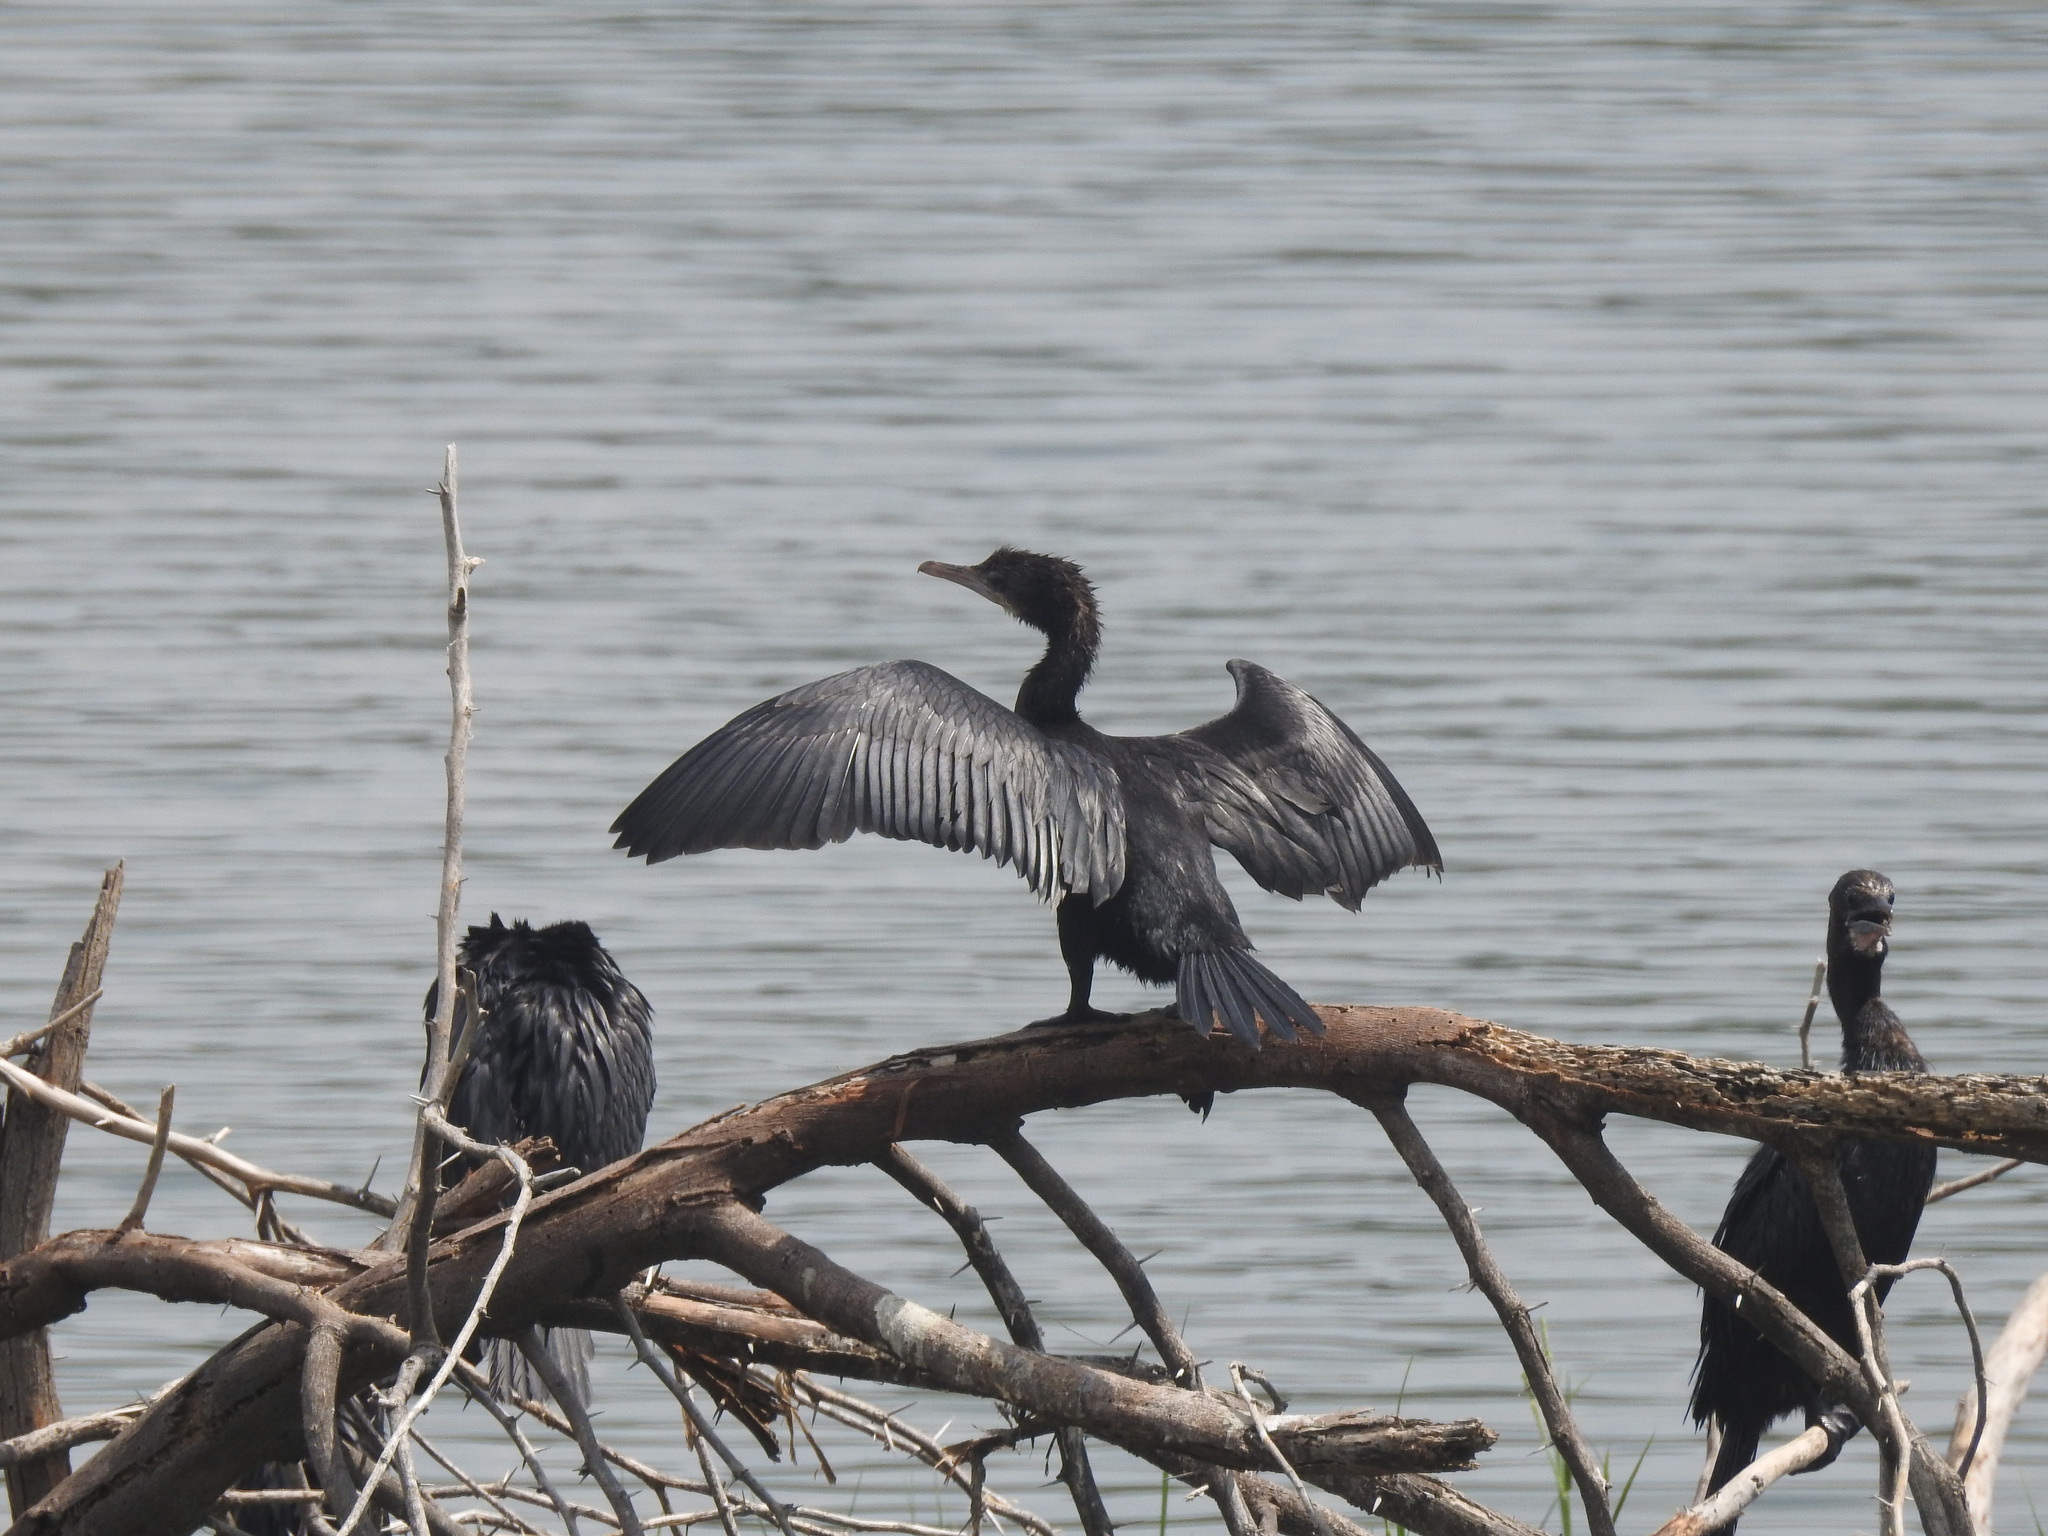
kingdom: Animalia
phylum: Chordata
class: Aves
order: Suliformes
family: Phalacrocoracidae
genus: Microcarbo
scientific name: Microcarbo niger
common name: Little cormorant
